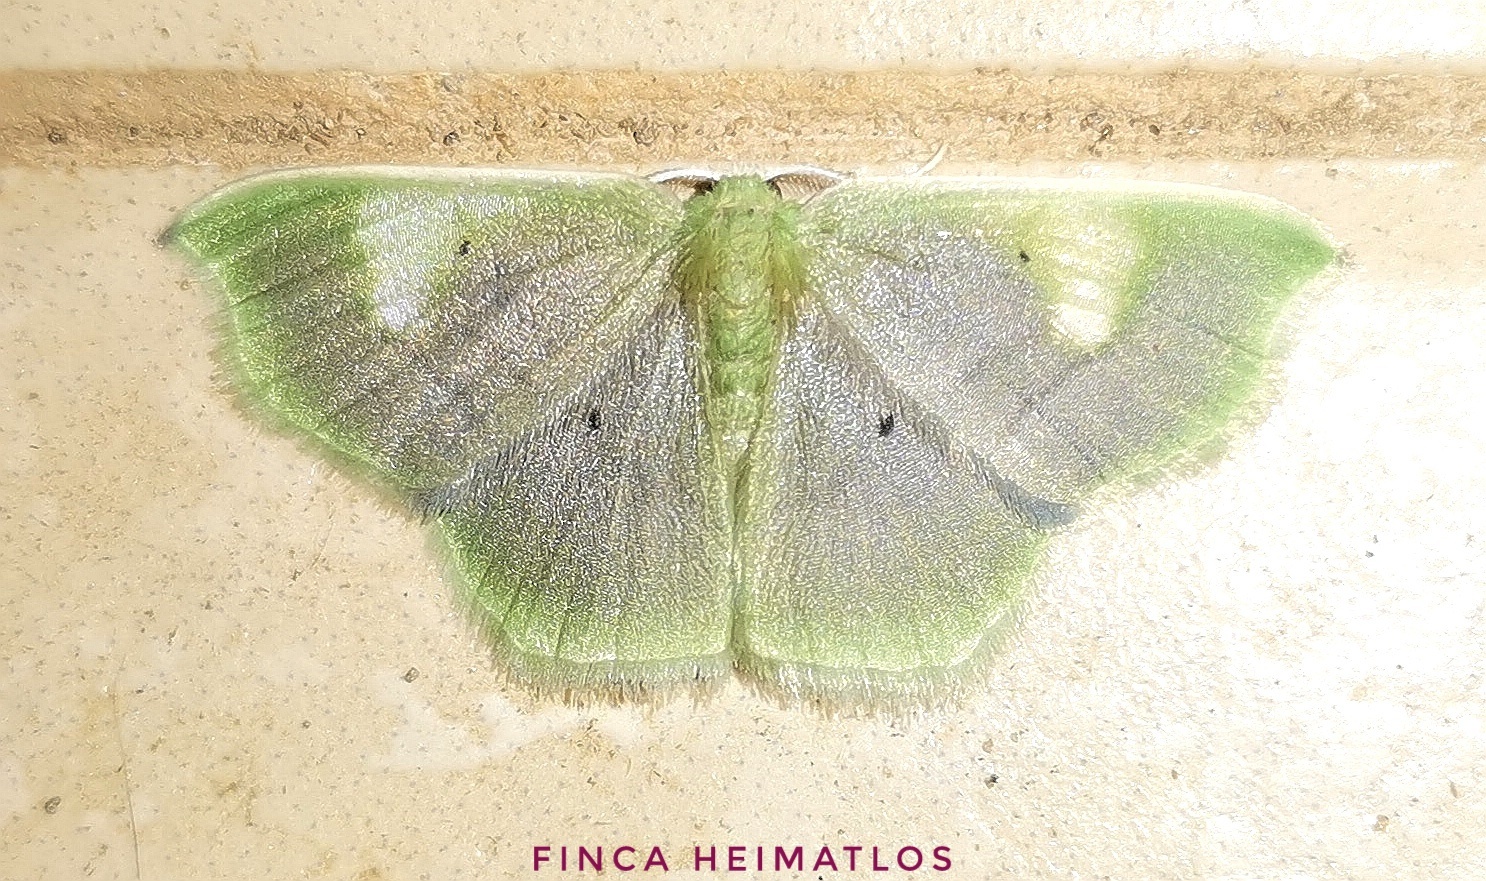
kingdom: Animalia
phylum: Arthropoda
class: Insecta
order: Lepidoptera
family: Geometridae
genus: Lissocentra
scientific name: Lissocentra
